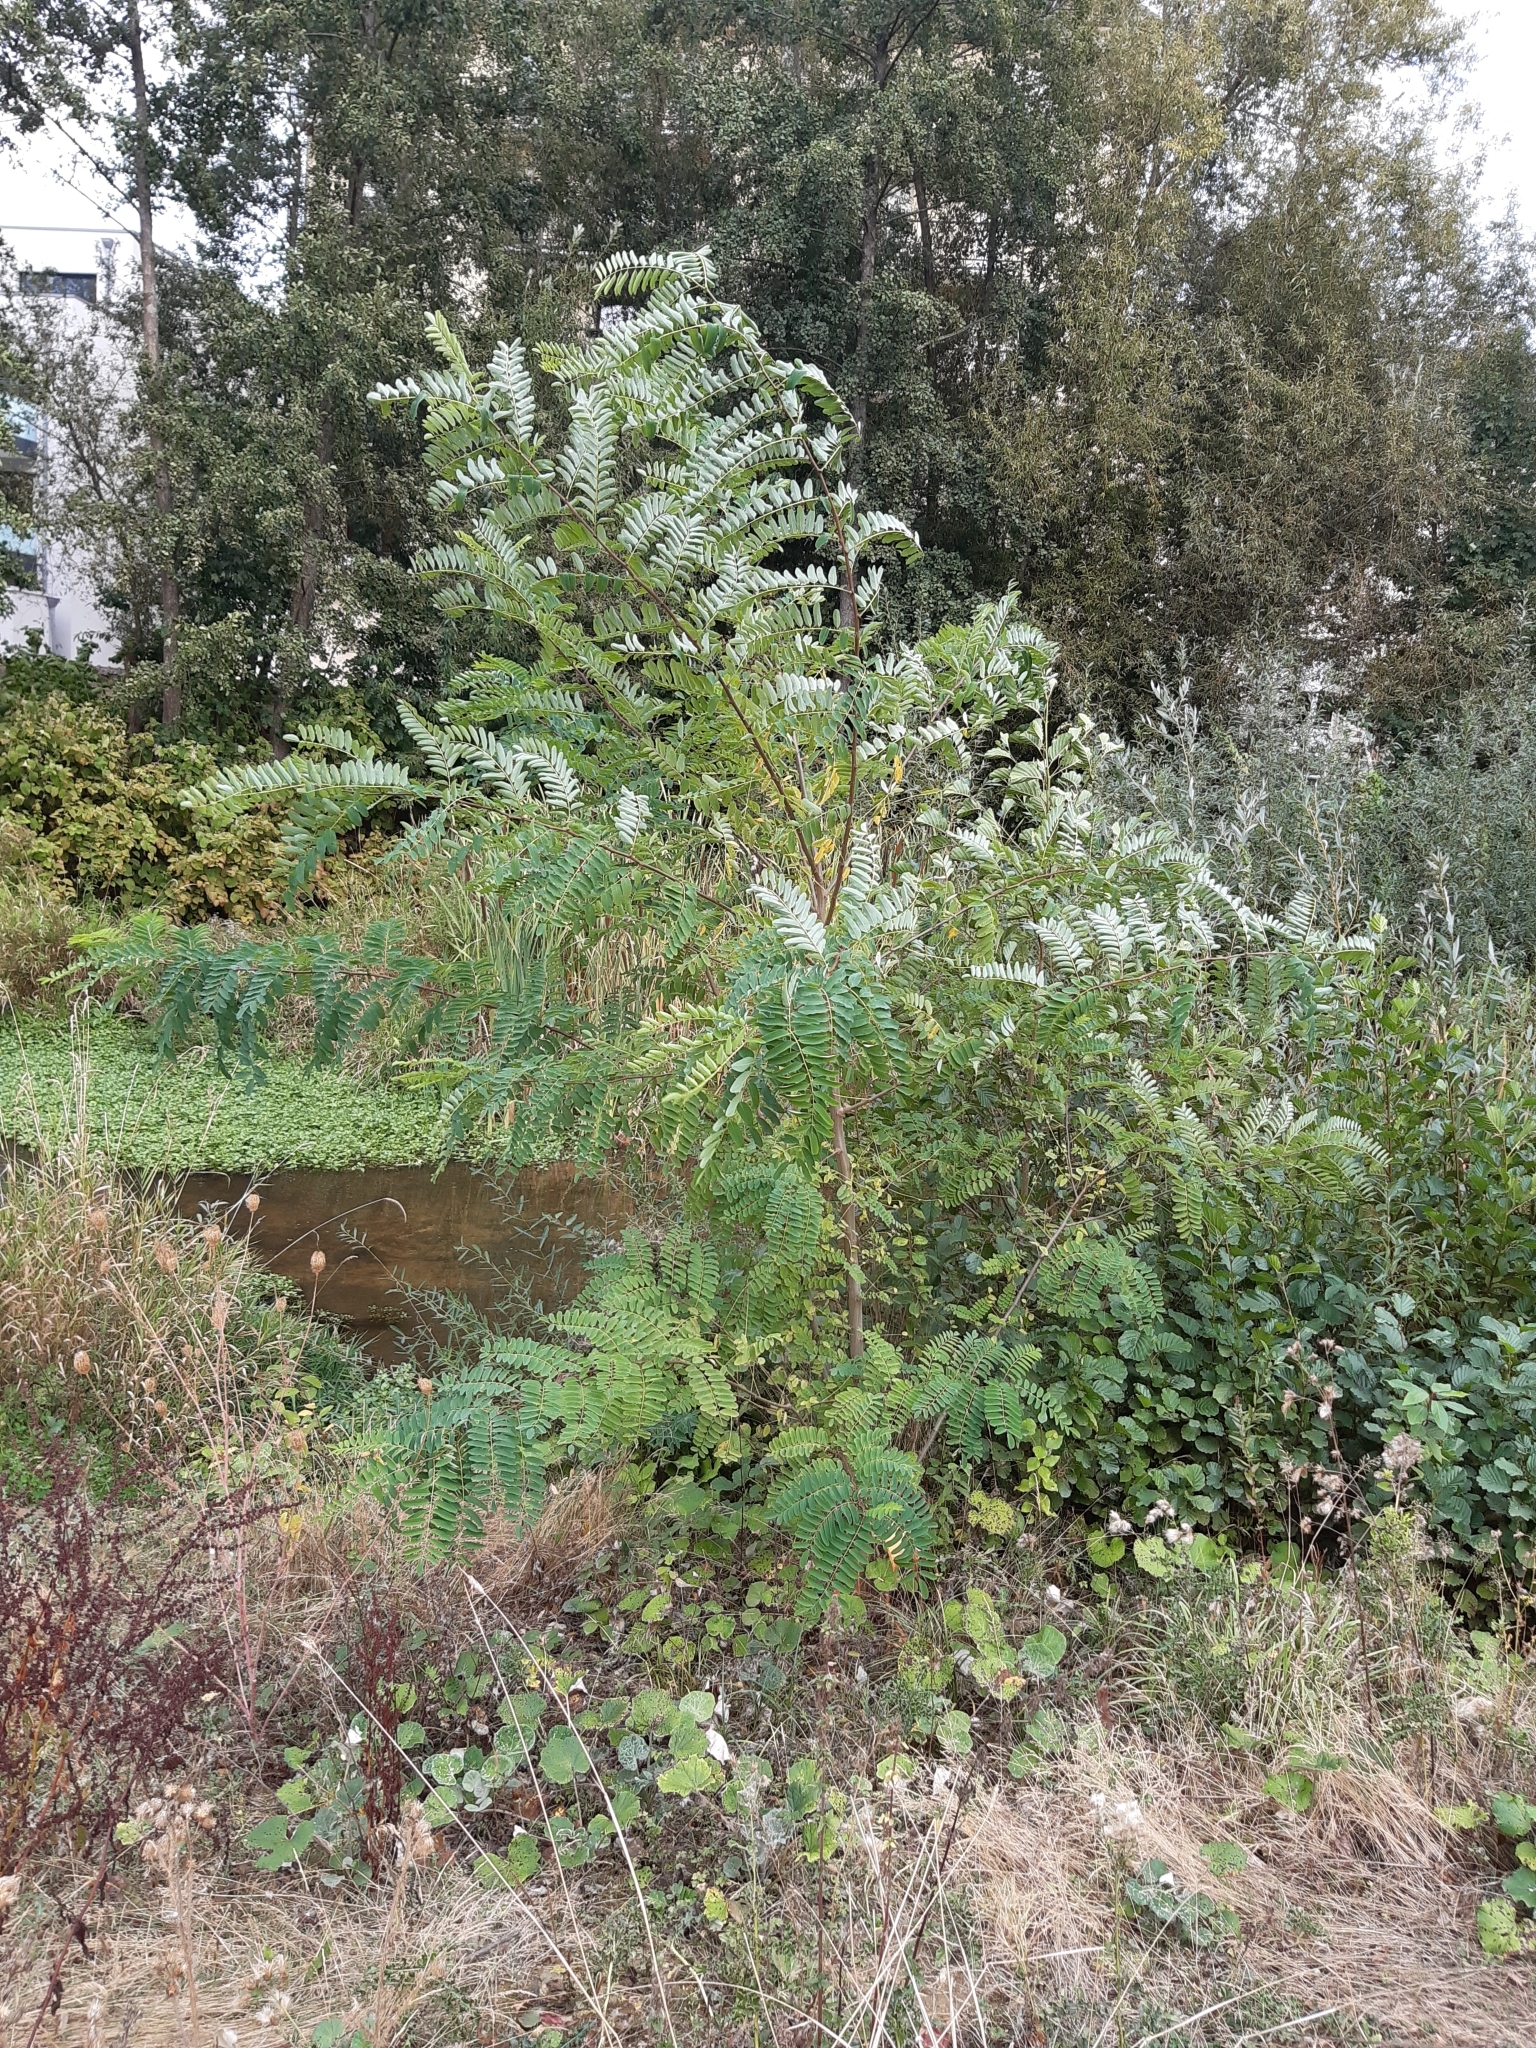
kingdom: Plantae
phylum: Tracheophyta
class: Magnoliopsida
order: Fabales
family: Fabaceae
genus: Robinia
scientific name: Robinia pseudoacacia
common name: Black locust
